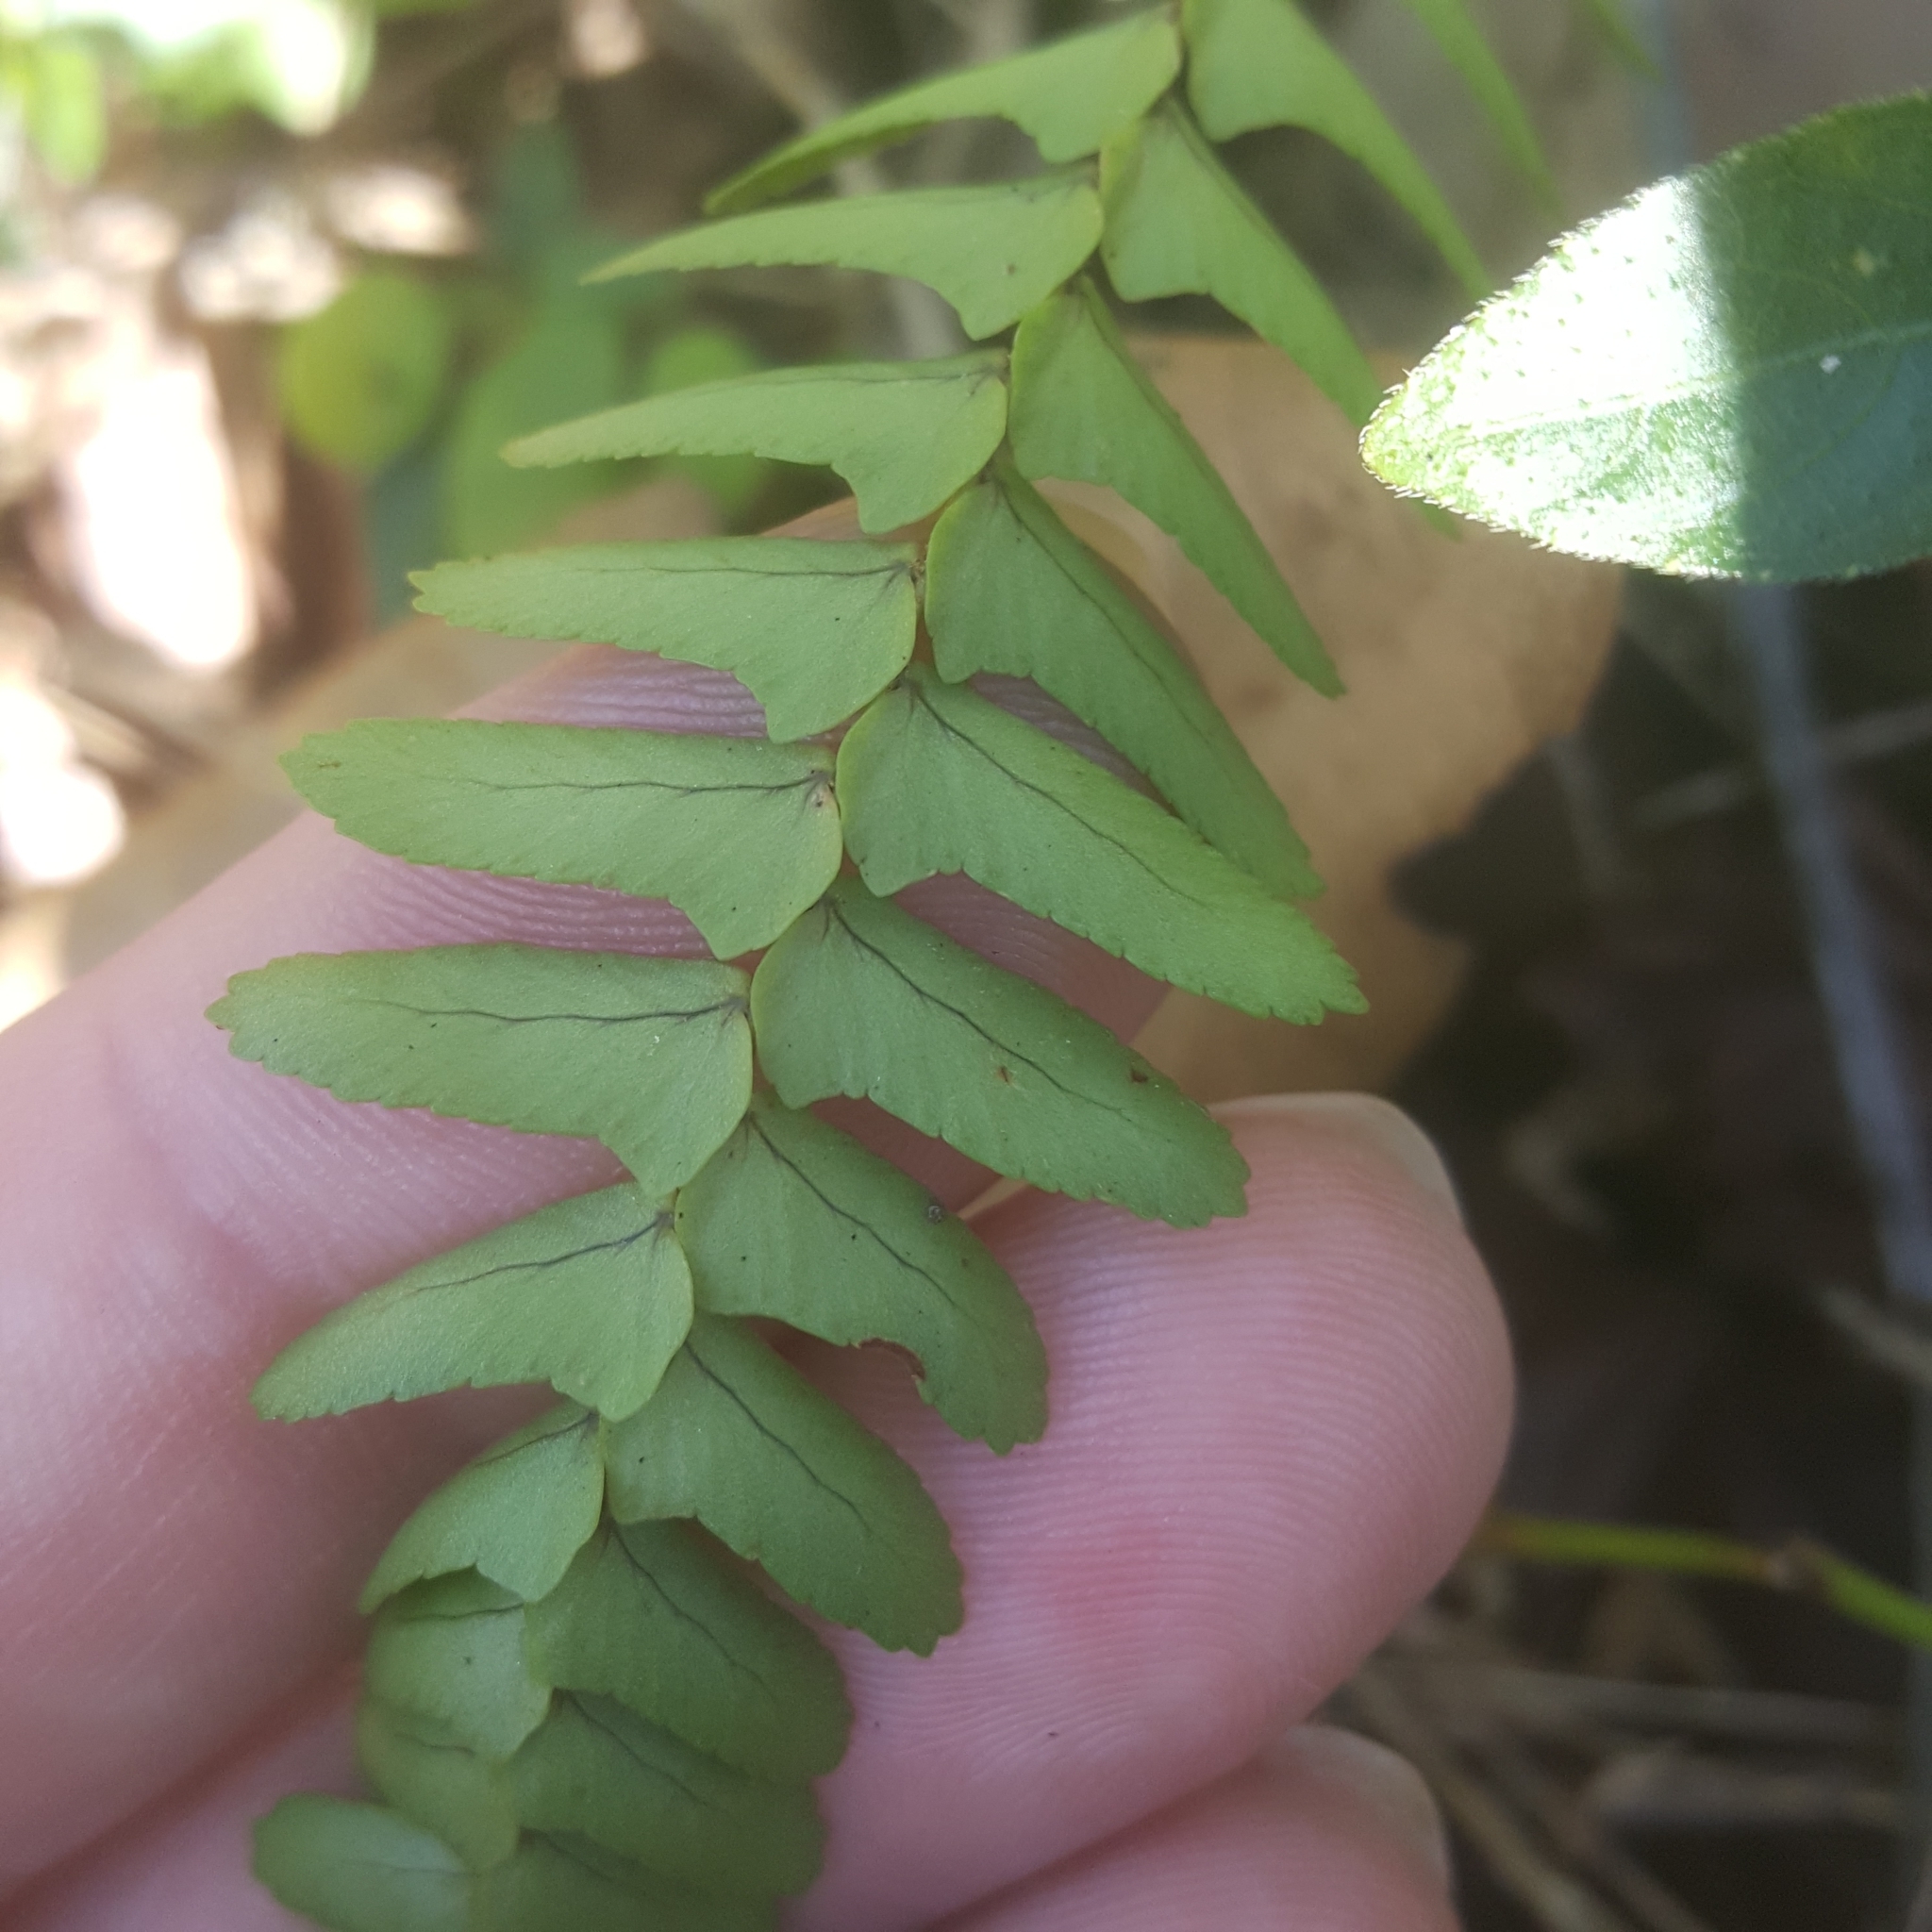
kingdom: Plantae
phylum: Tracheophyta
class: Polypodiopsida
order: Polypodiales
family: Nephrolepidaceae
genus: Nephrolepis
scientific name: Nephrolepis cordifolia
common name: Narrow swordfern
